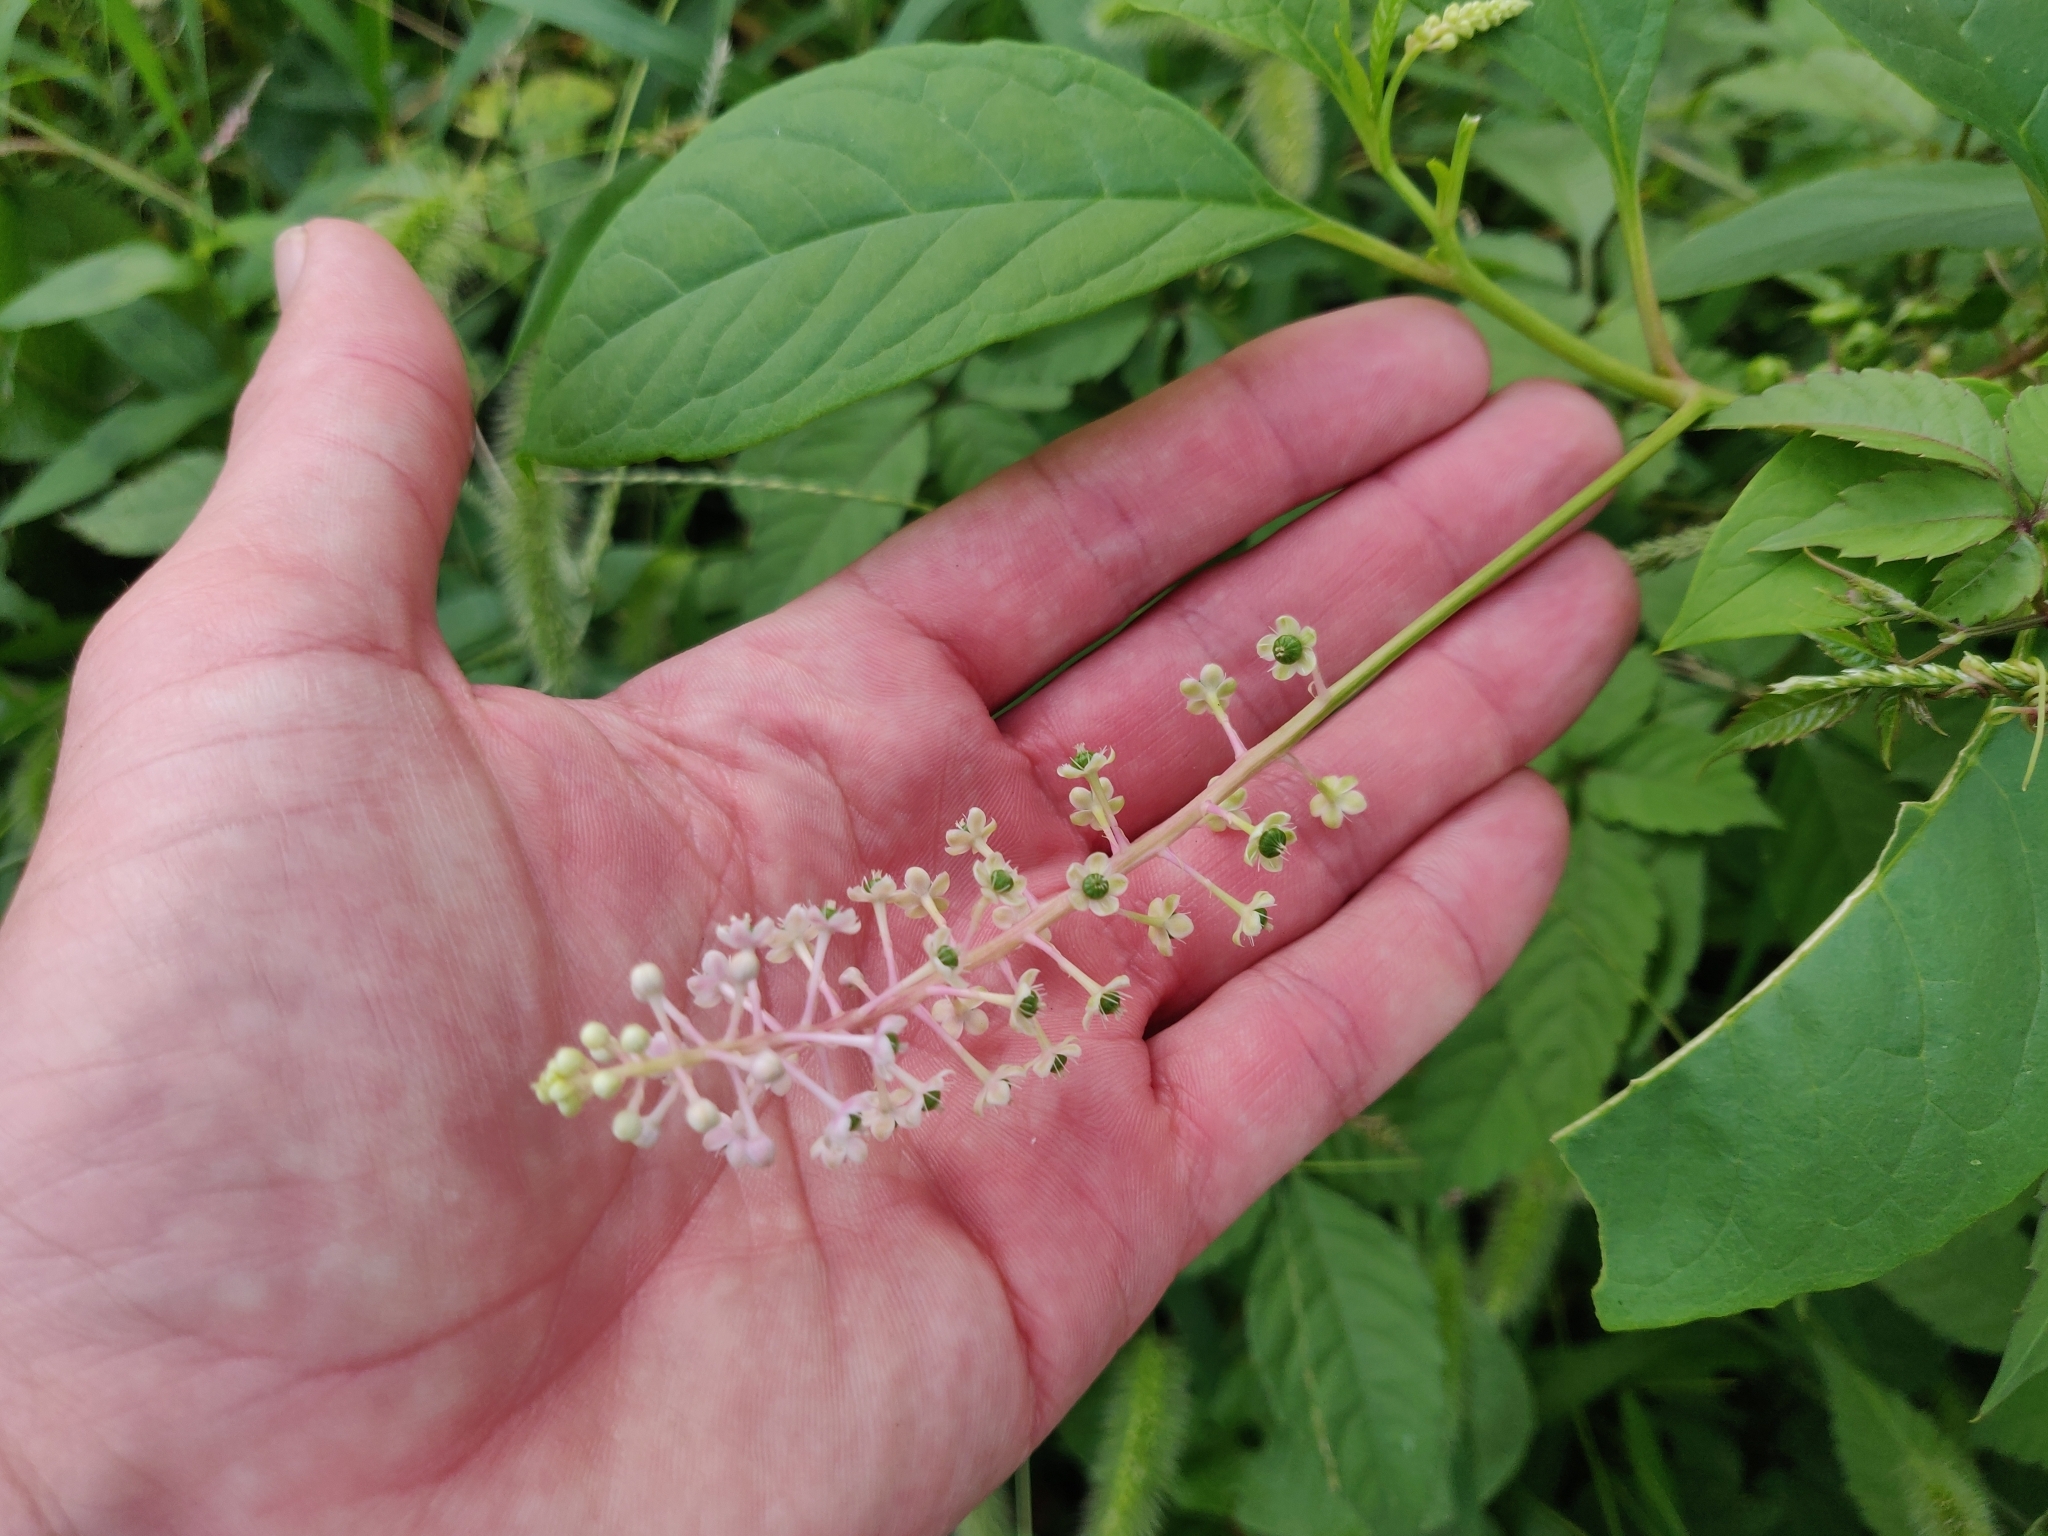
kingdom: Plantae
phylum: Tracheophyta
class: Magnoliopsida
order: Caryophyllales
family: Phytolaccaceae
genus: Phytolacca
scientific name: Phytolacca americana
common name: American pokeweed
